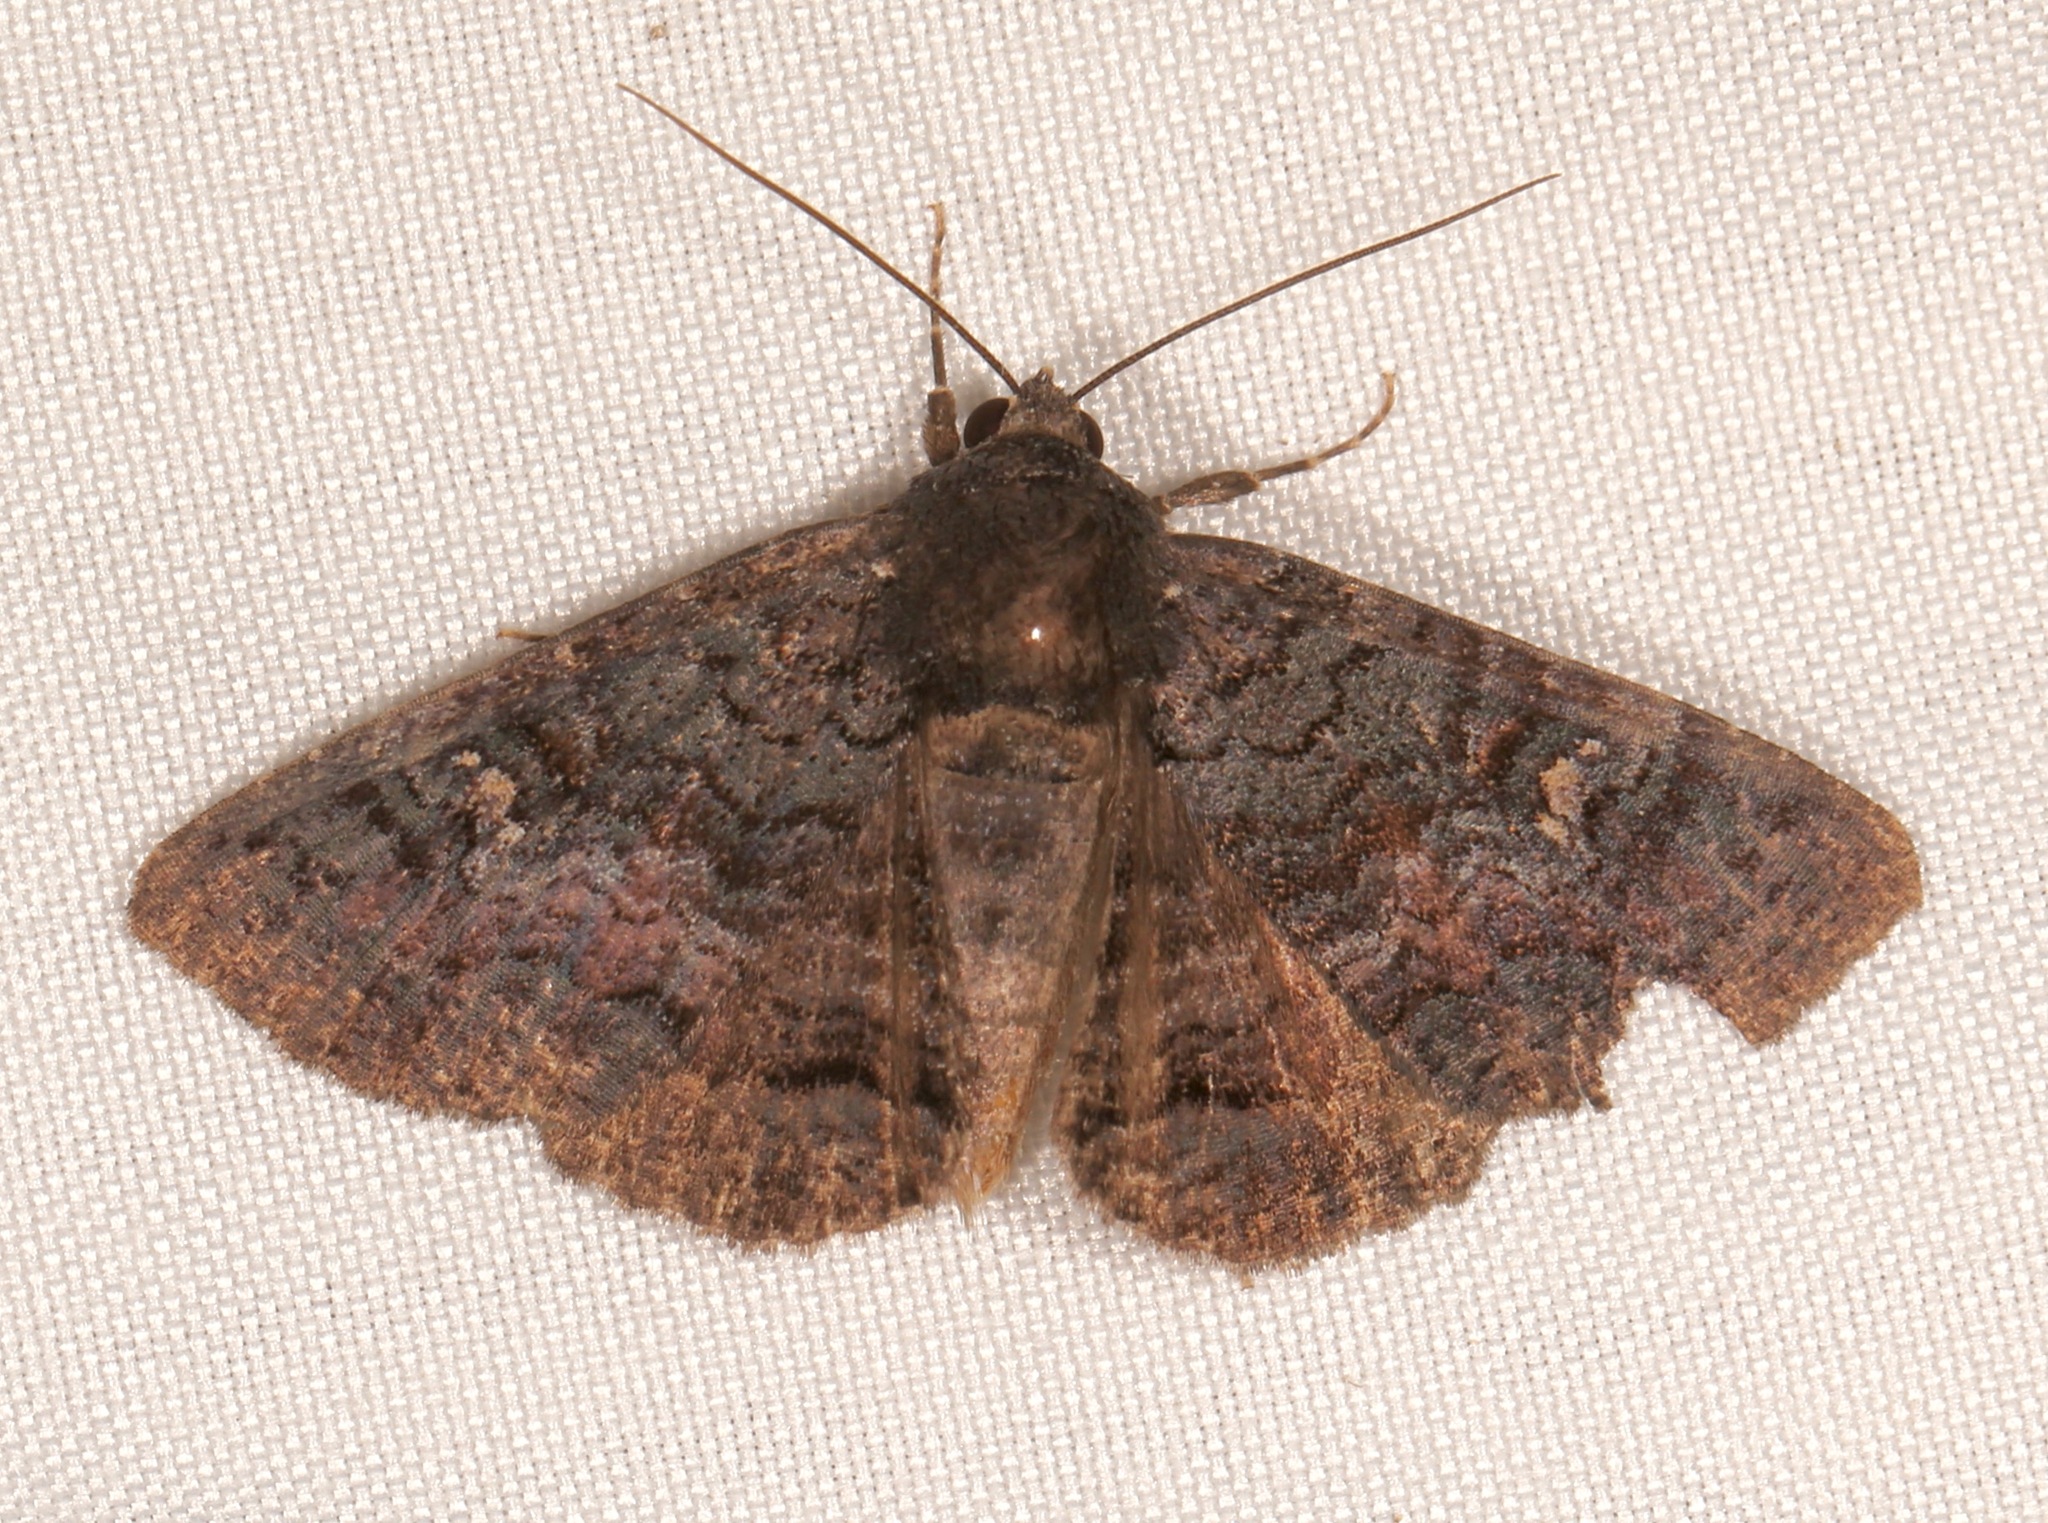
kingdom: Animalia
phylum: Arthropoda
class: Insecta
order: Lepidoptera
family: Erebidae
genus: Zale
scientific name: Zale coracias
